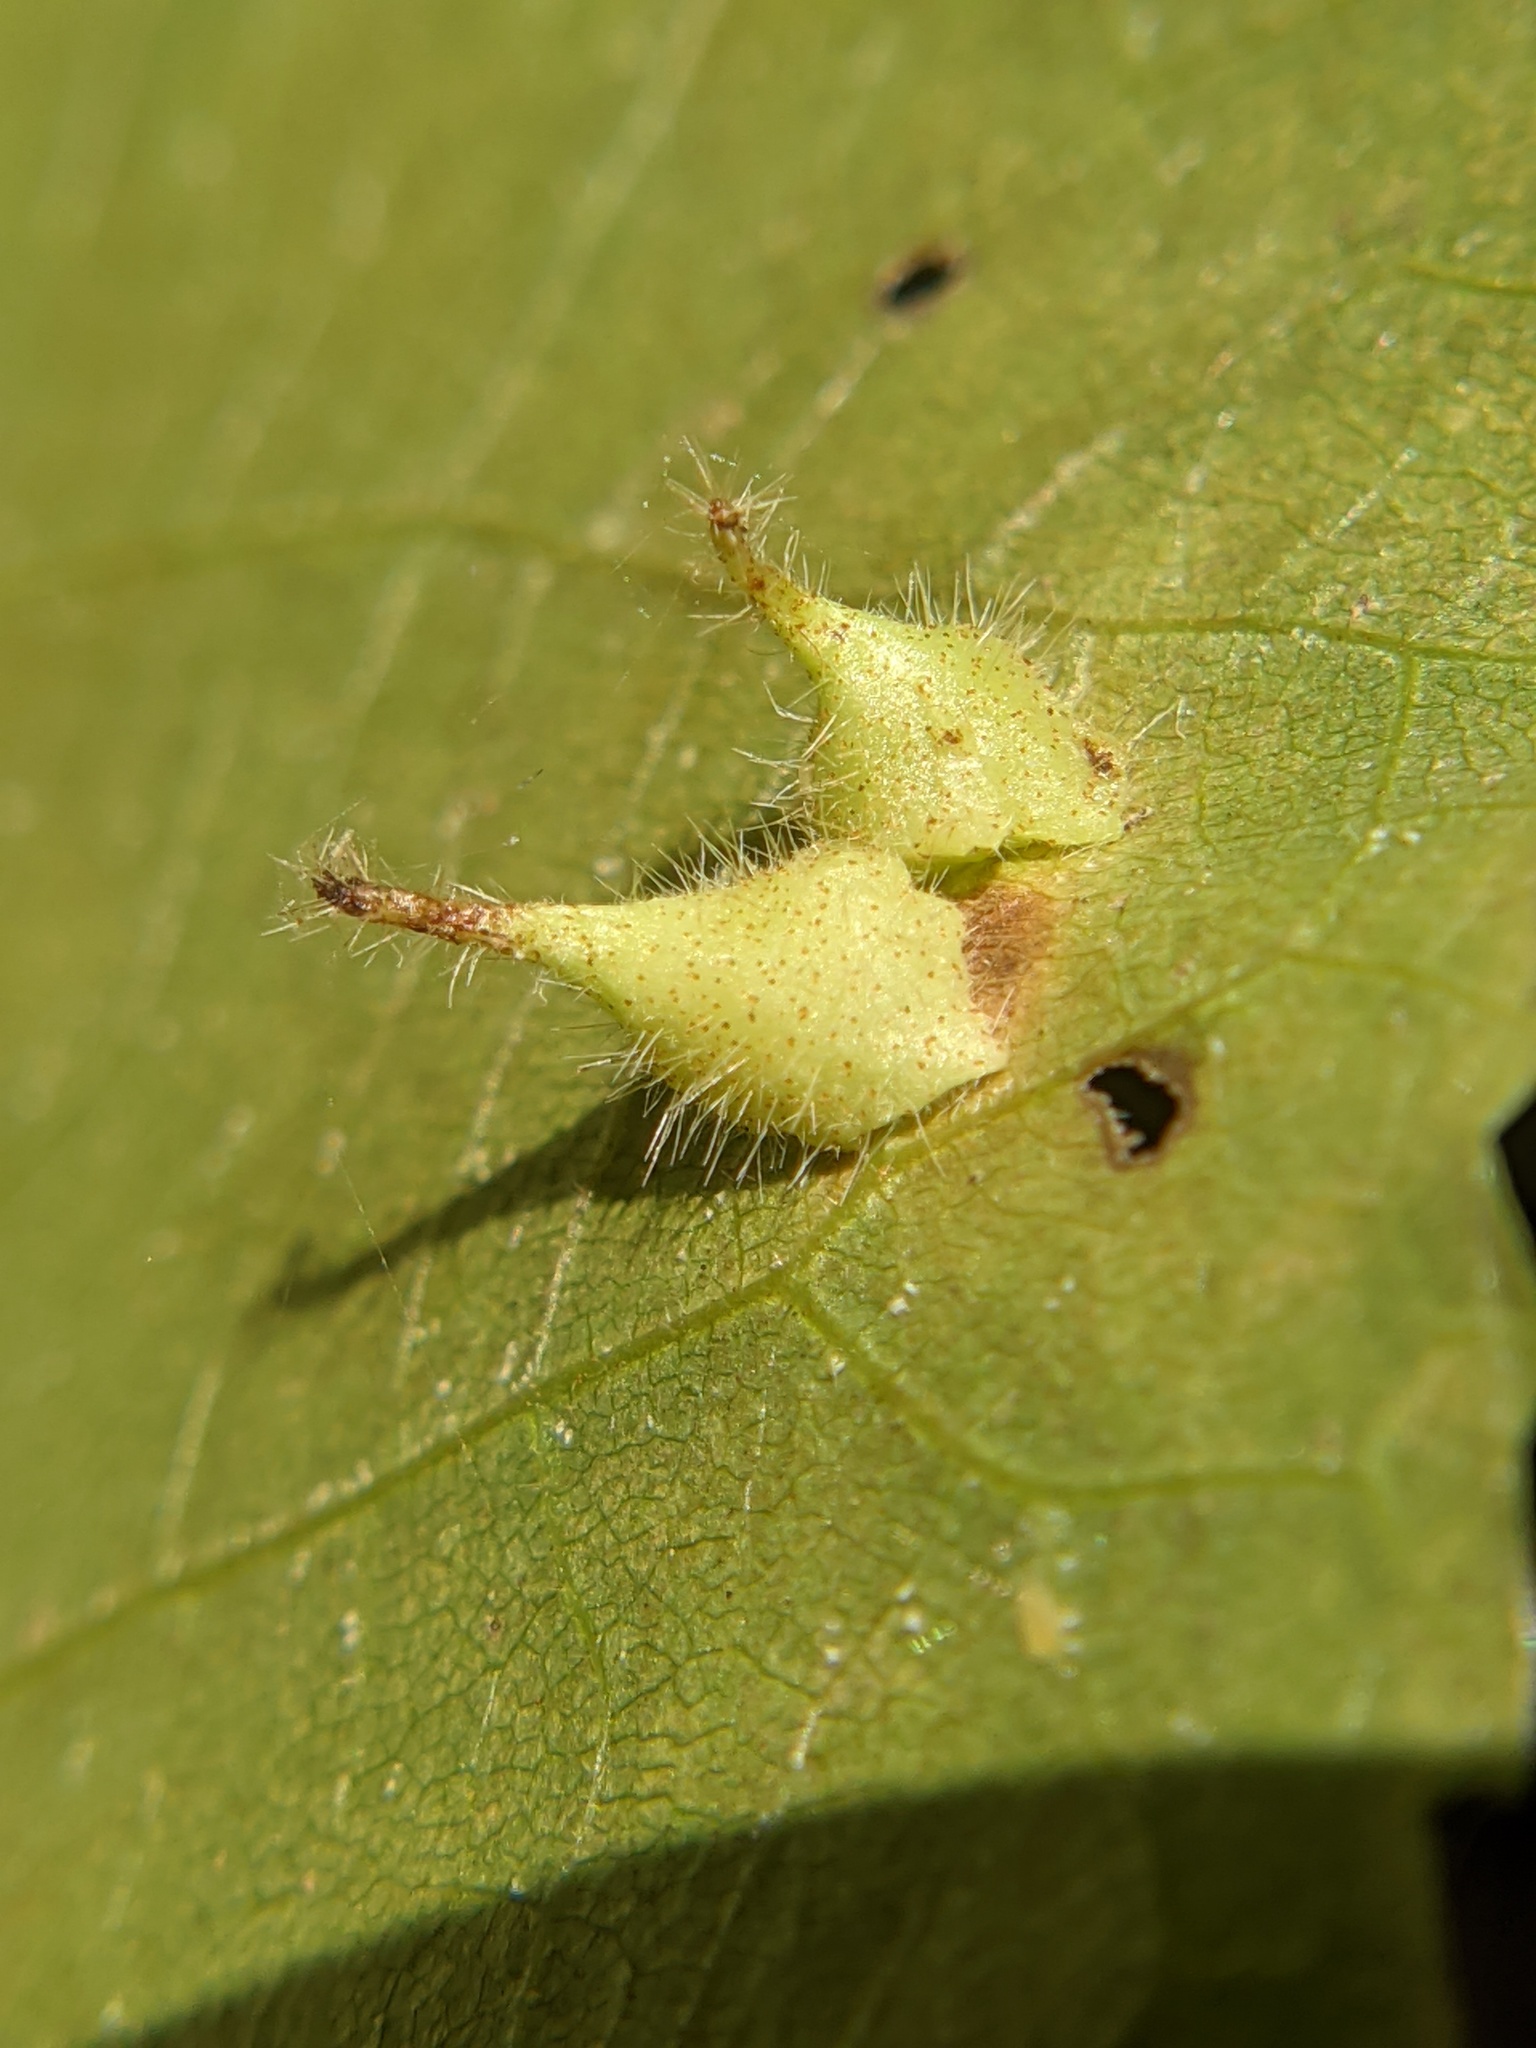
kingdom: Animalia
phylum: Arthropoda
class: Insecta
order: Diptera
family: Cecidomyiidae
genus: Caryomyia
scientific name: Caryomyia inclinata
